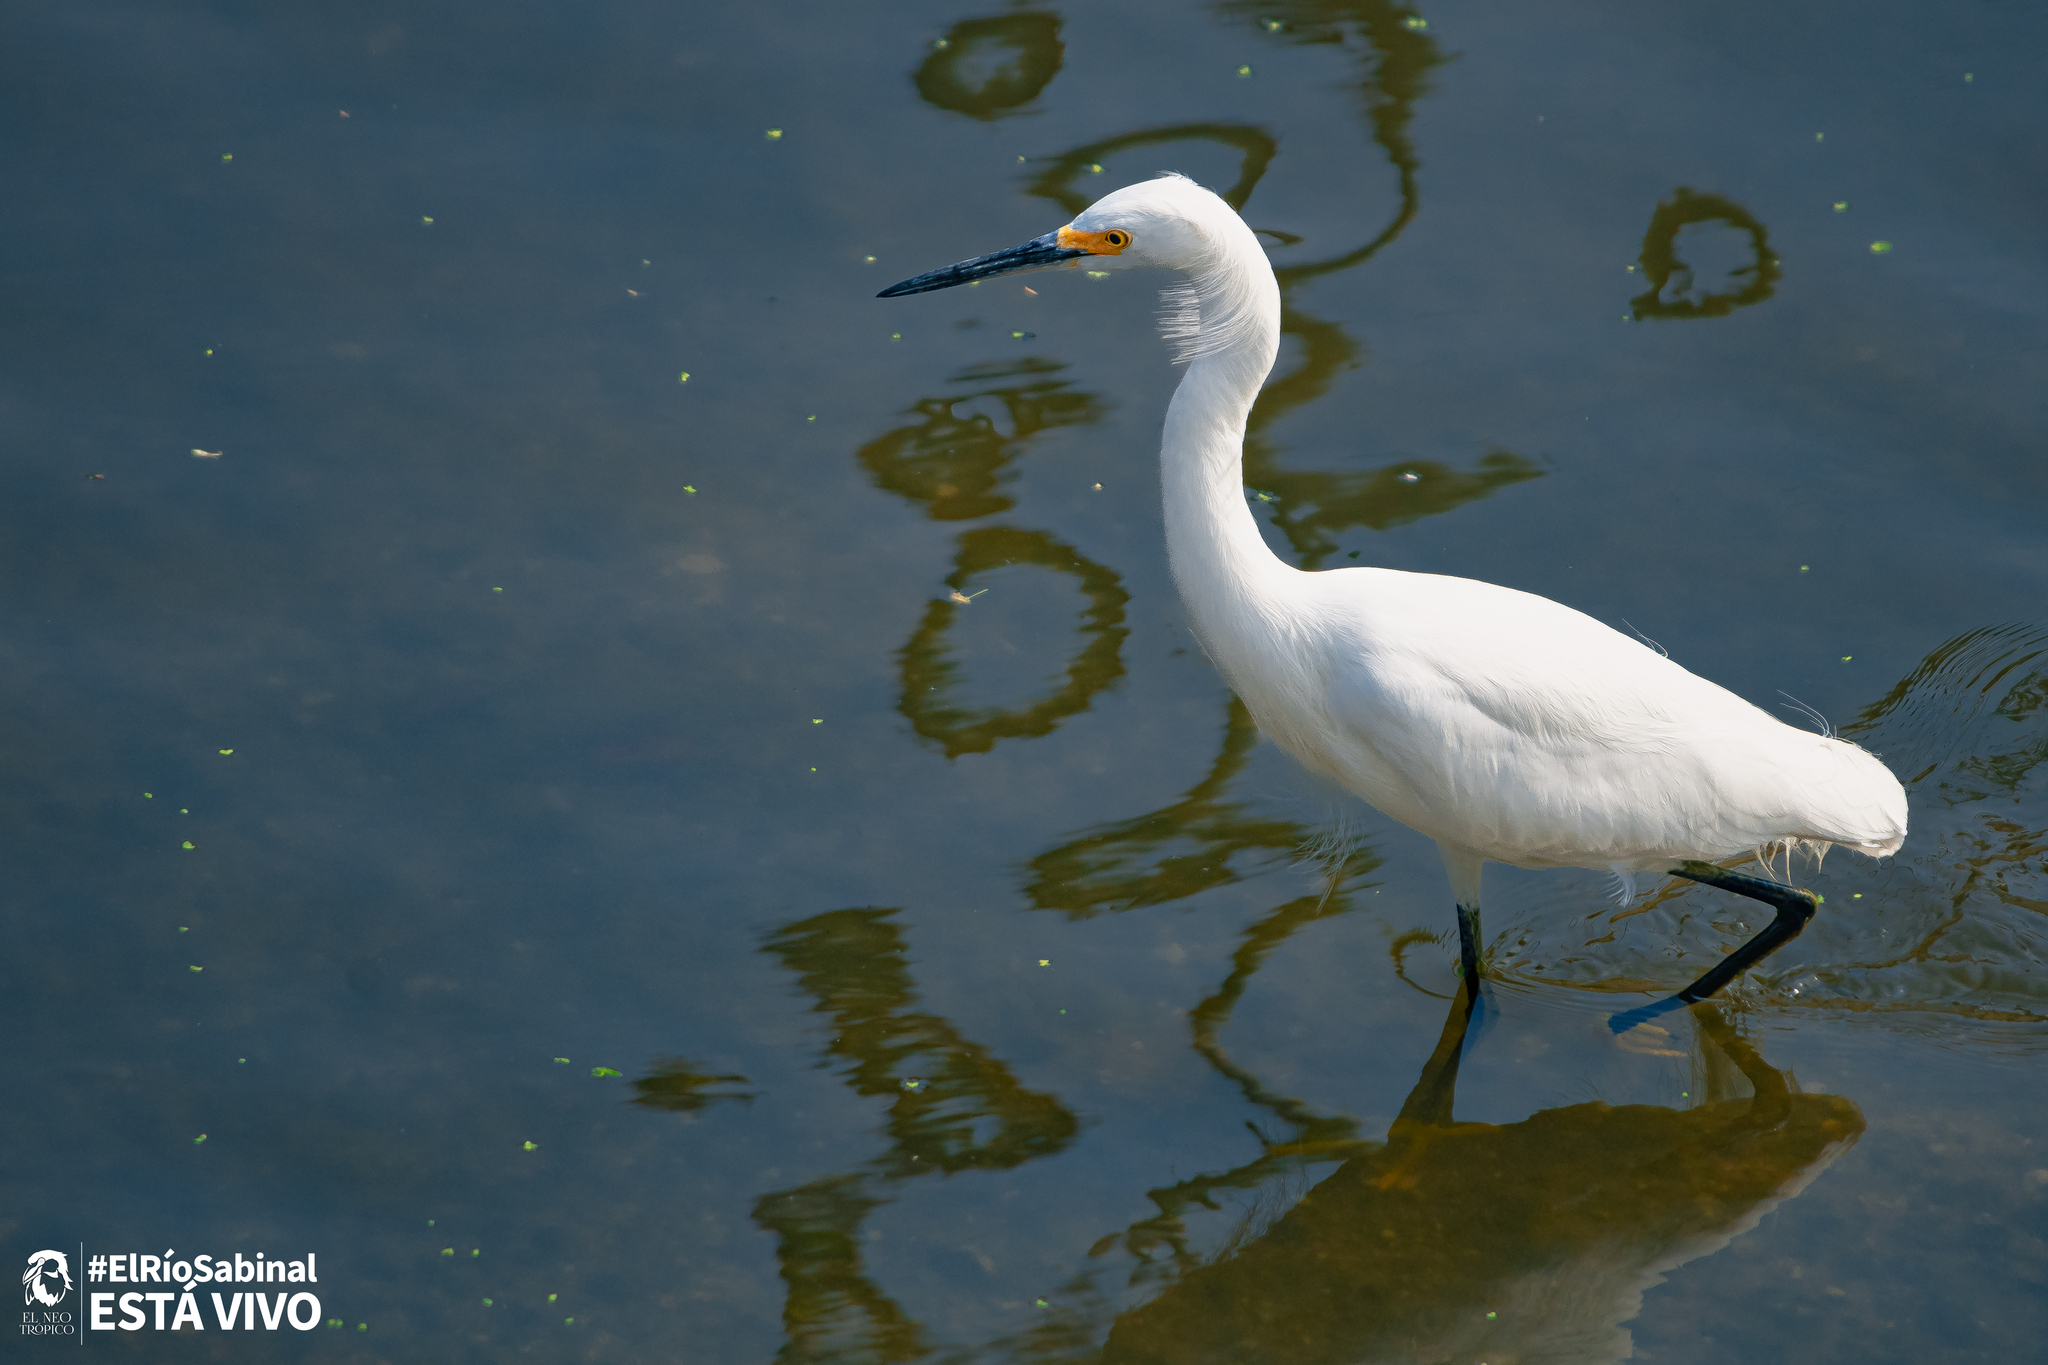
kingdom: Animalia
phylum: Chordata
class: Aves
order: Pelecaniformes
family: Ardeidae
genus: Egretta
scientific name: Egretta thula
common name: Snowy egret
